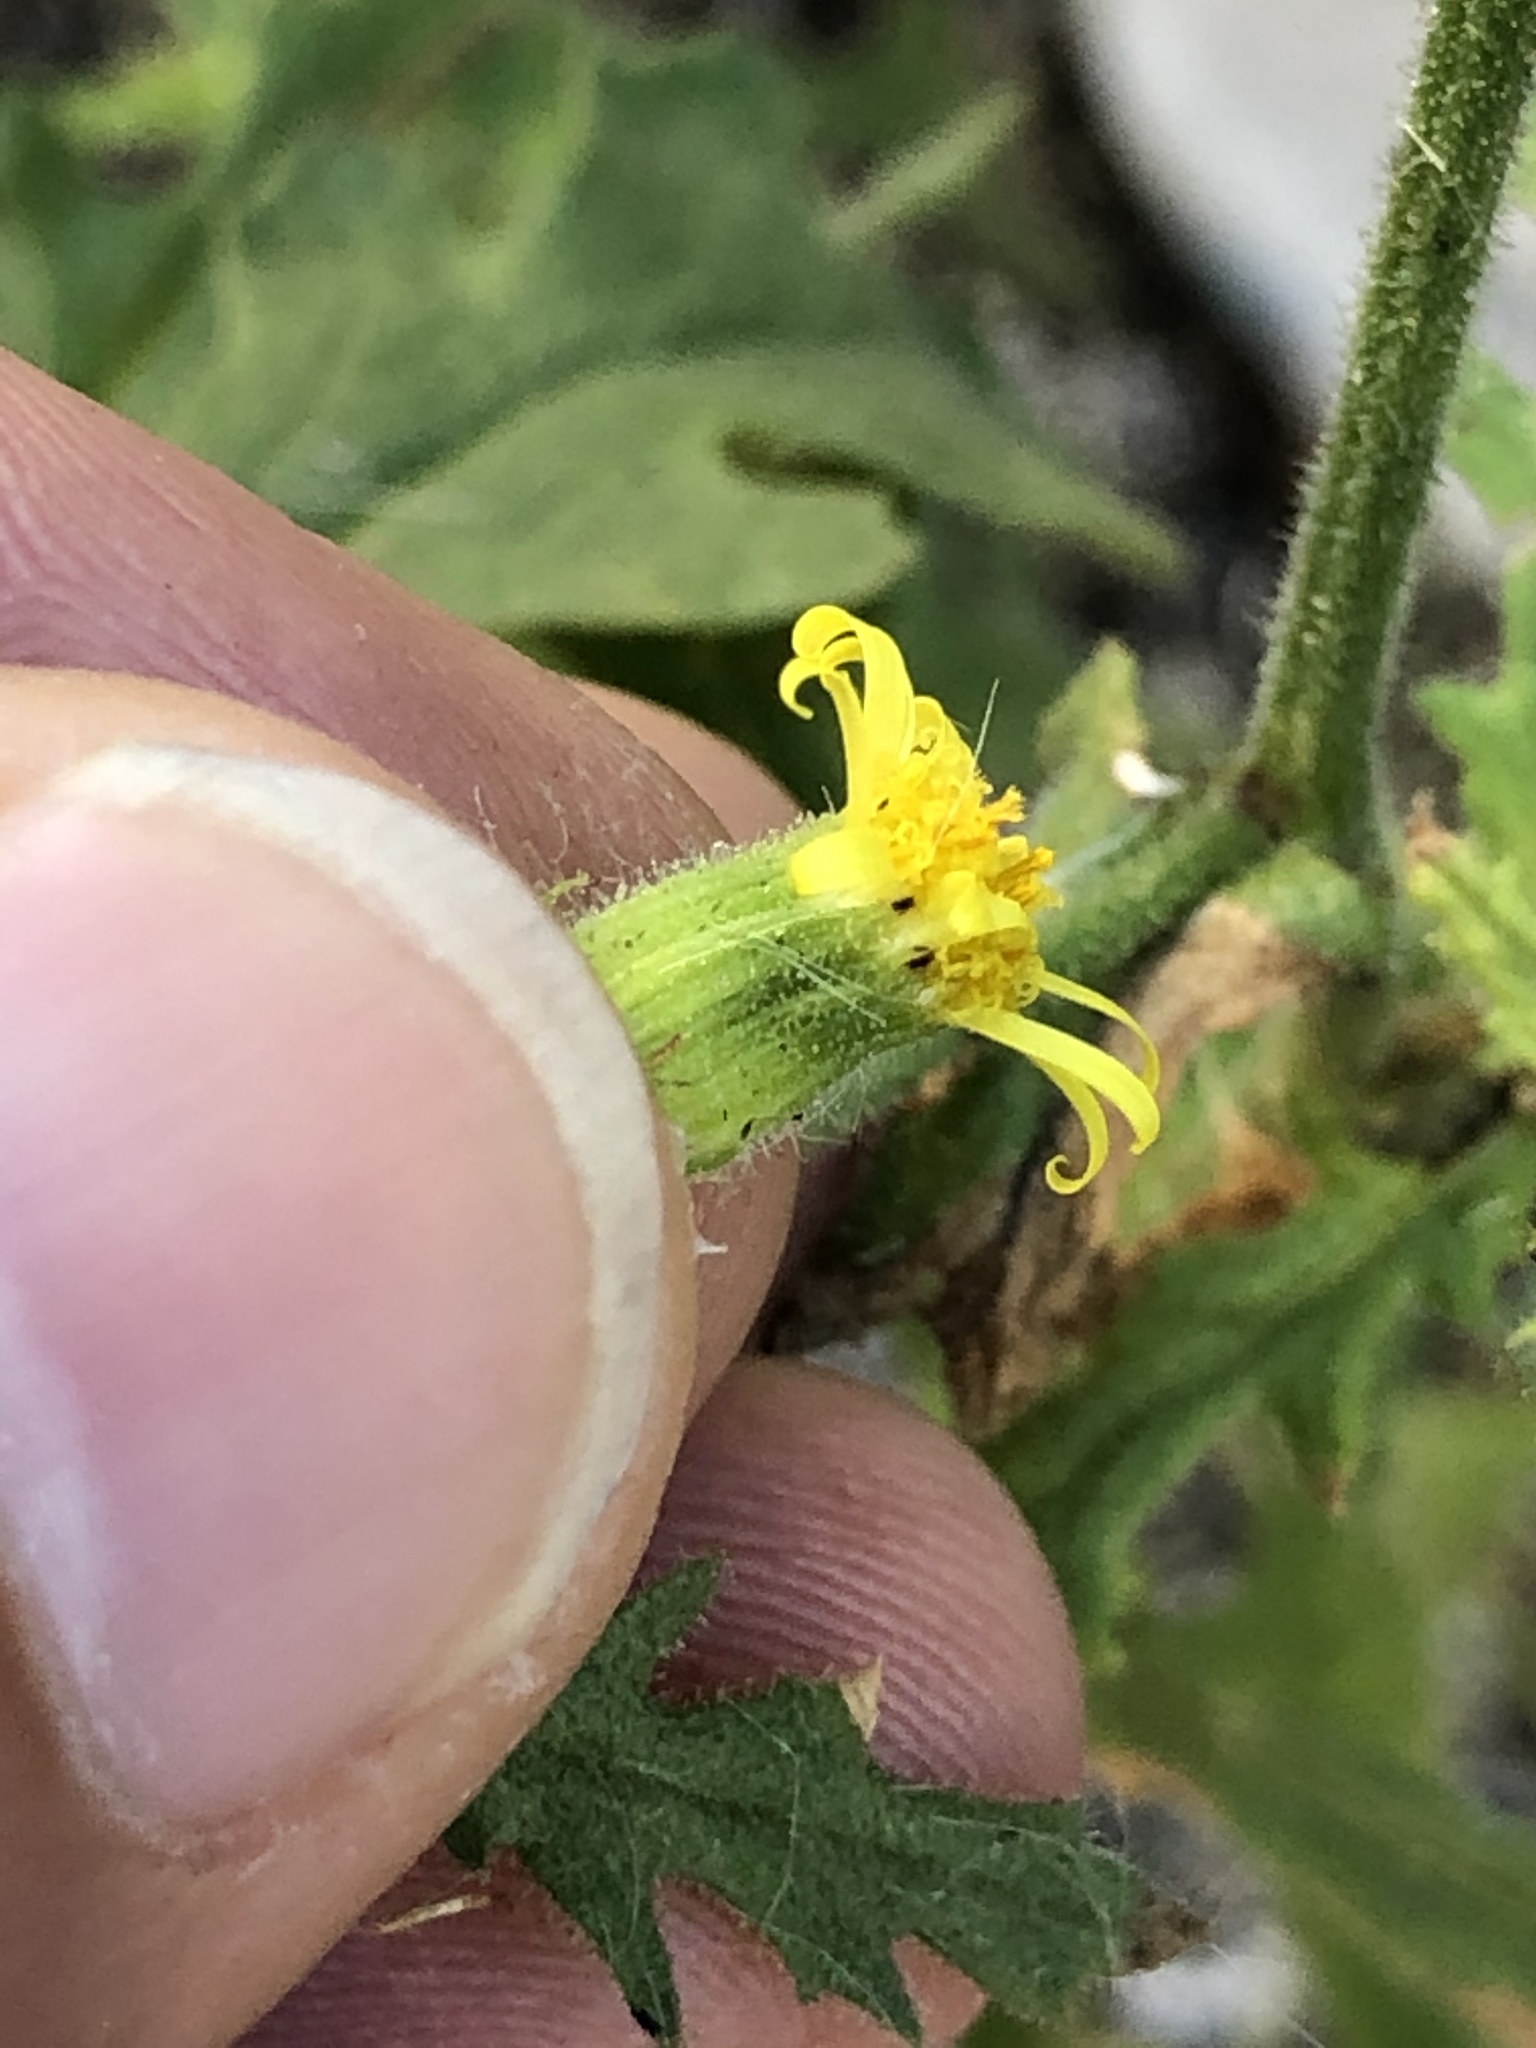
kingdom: Plantae
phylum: Tracheophyta
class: Magnoliopsida
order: Asterales
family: Asteraceae
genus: Senecio
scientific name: Senecio viscosus
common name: Sticky groundsel
